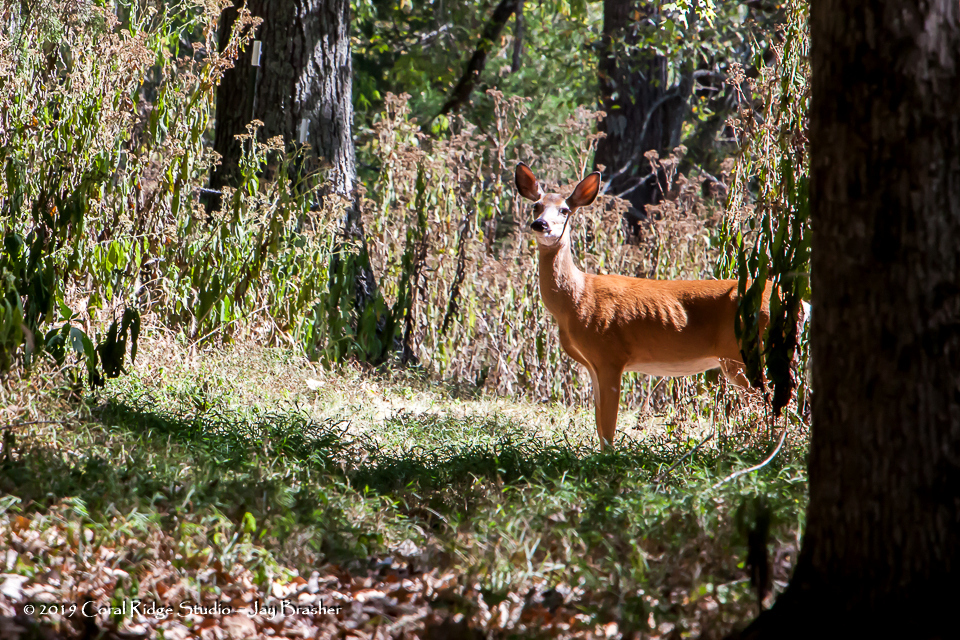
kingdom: Animalia
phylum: Chordata
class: Mammalia
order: Artiodactyla
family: Cervidae
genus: Odocoileus
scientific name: Odocoileus virginianus
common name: White-tailed deer
